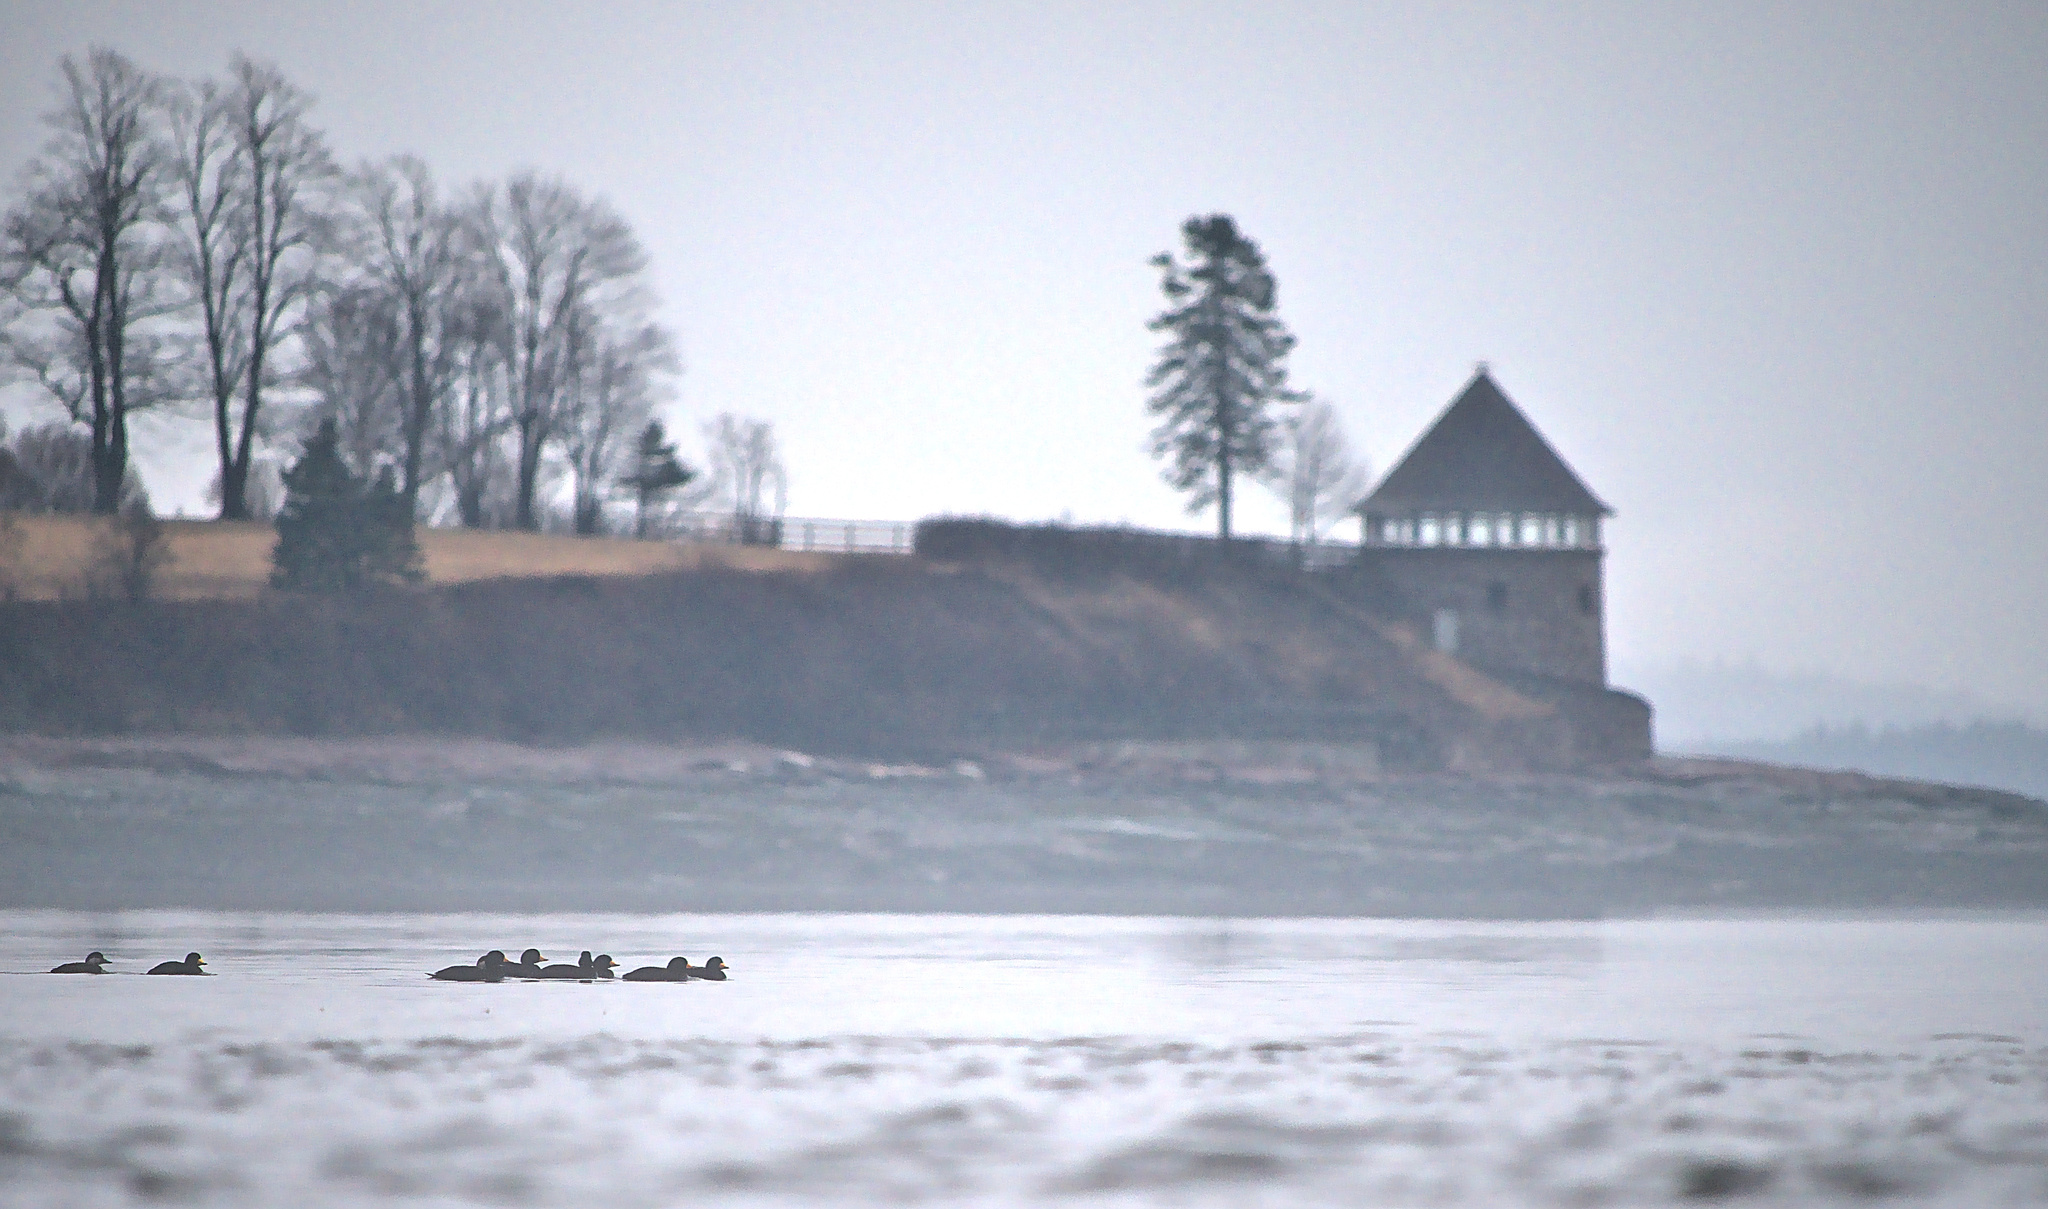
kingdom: Animalia
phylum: Chordata
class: Aves
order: Anseriformes
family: Anatidae
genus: Melanitta
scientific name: Melanitta americana
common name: Black scoter
